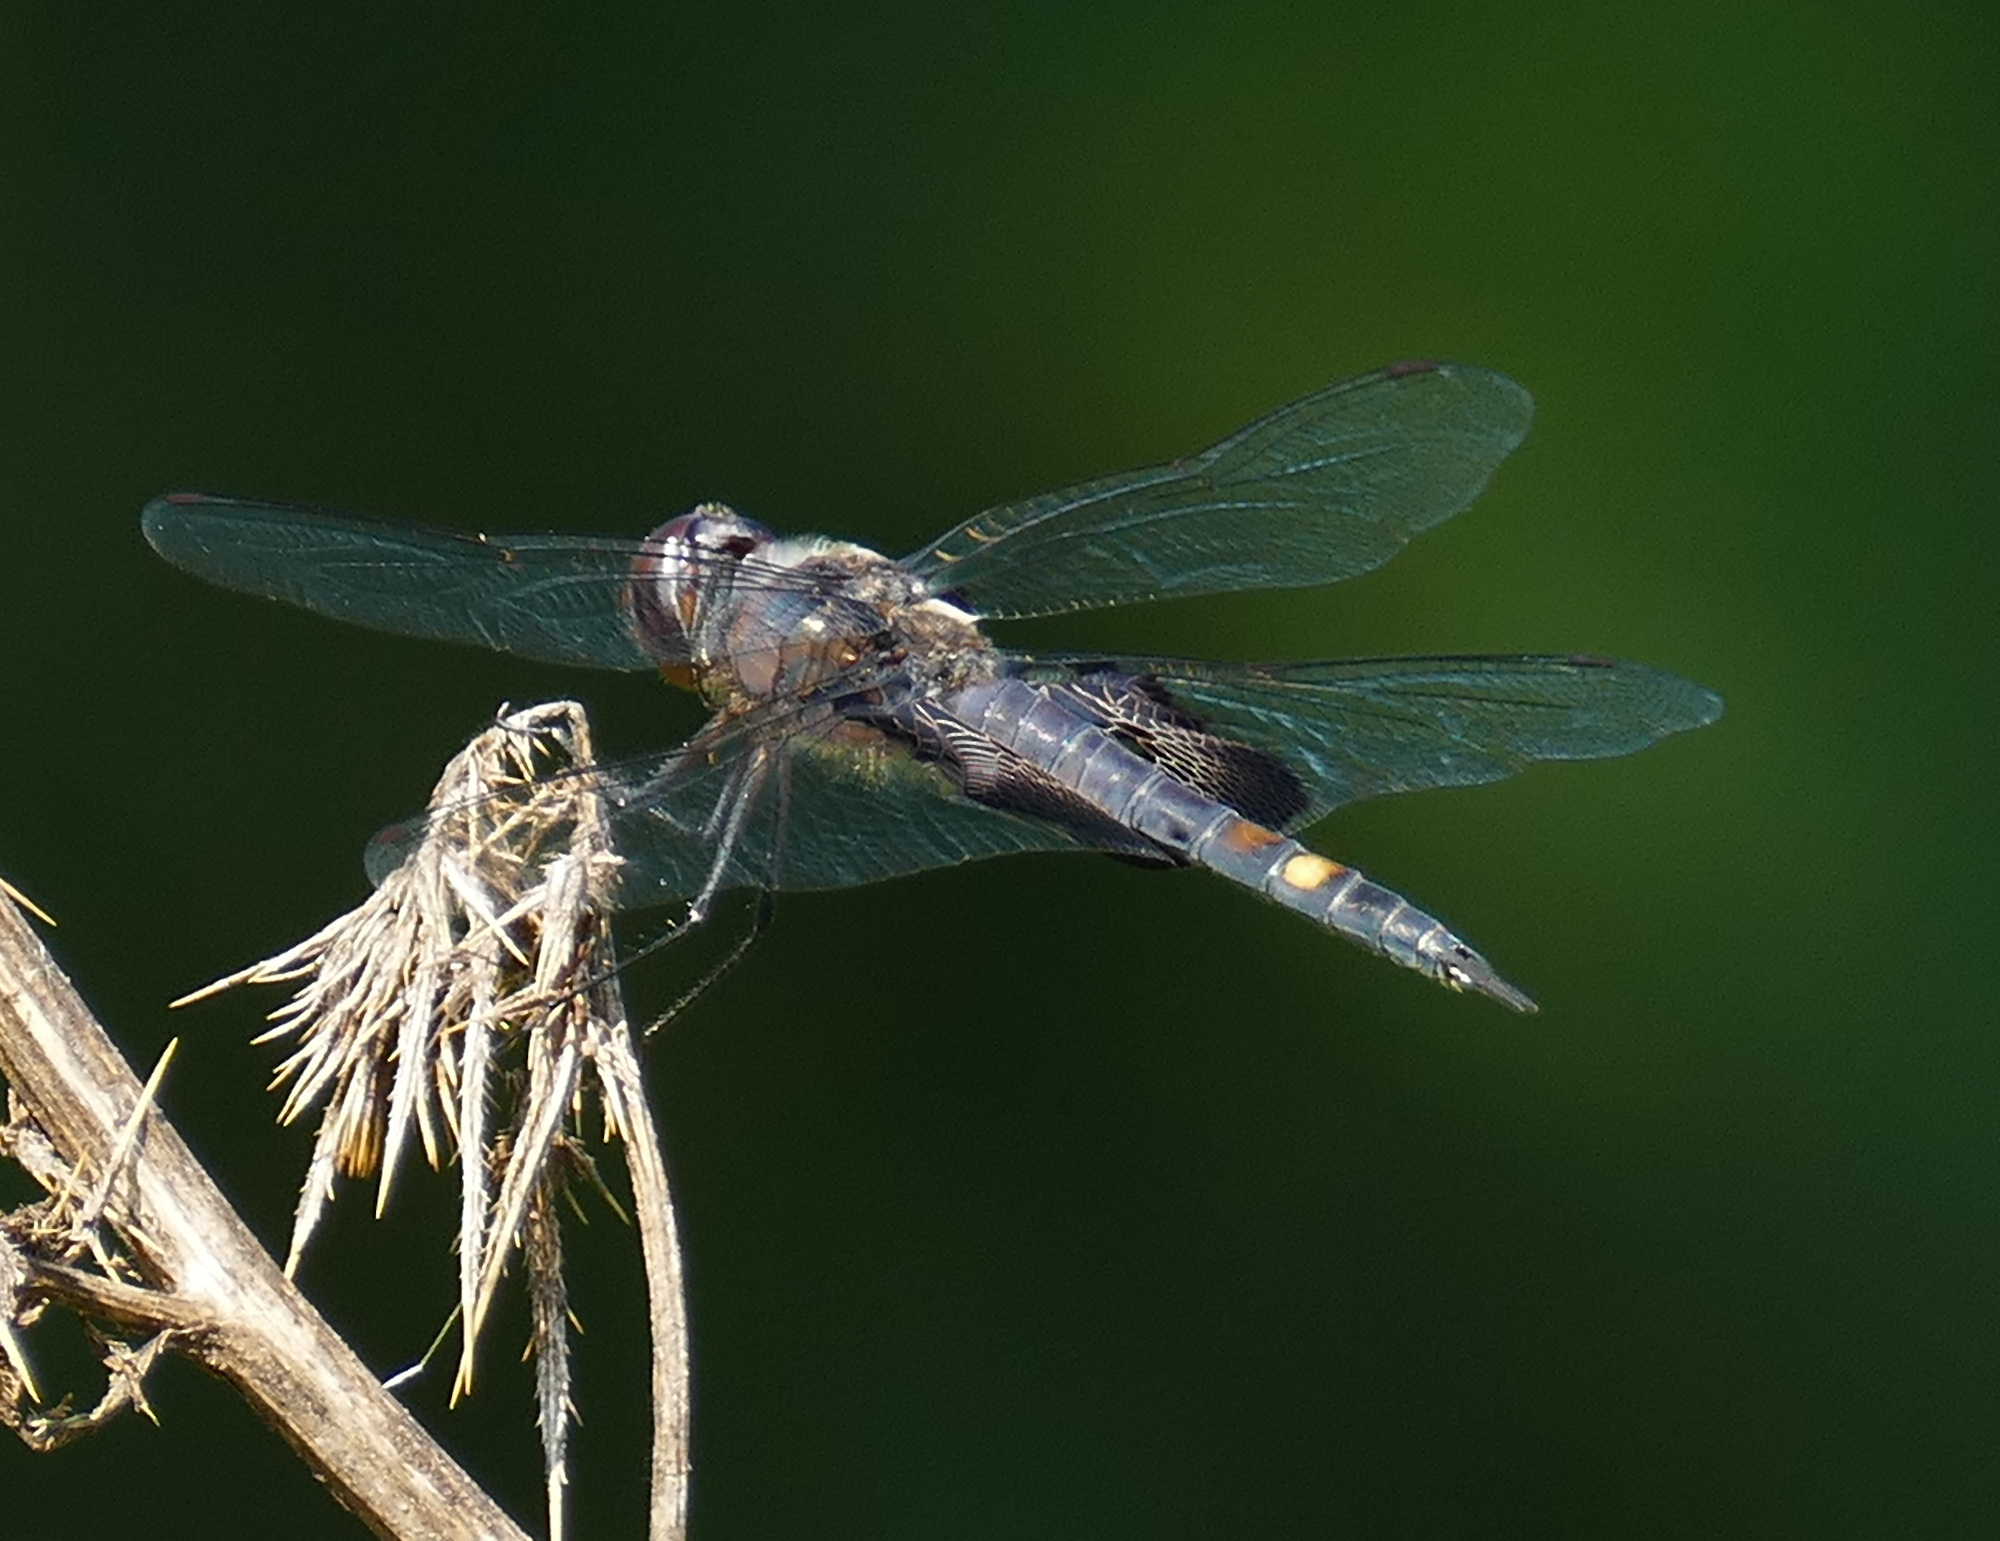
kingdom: Animalia
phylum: Arthropoda
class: Insecta
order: Odonata
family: Libellulidae
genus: Tramea
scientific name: Tramea lacerata
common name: Black saddlebags
